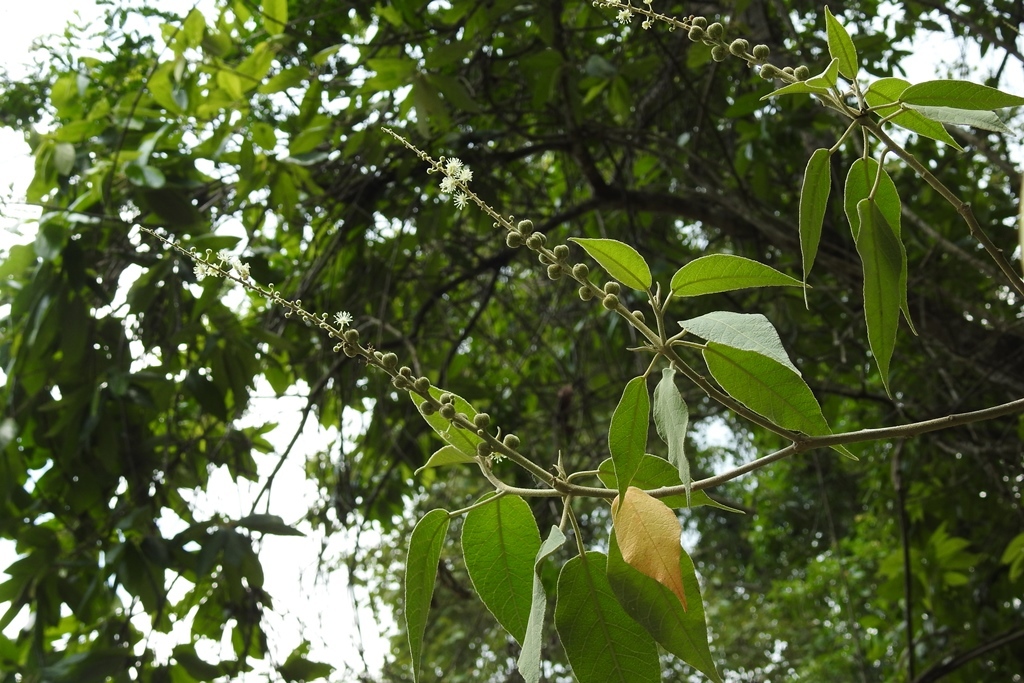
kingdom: Plantae
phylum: Tracheophyta
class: Magnoliopsida
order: Malpighiales
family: Euphorbiaceae
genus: Croton
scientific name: Croton mexicanus
